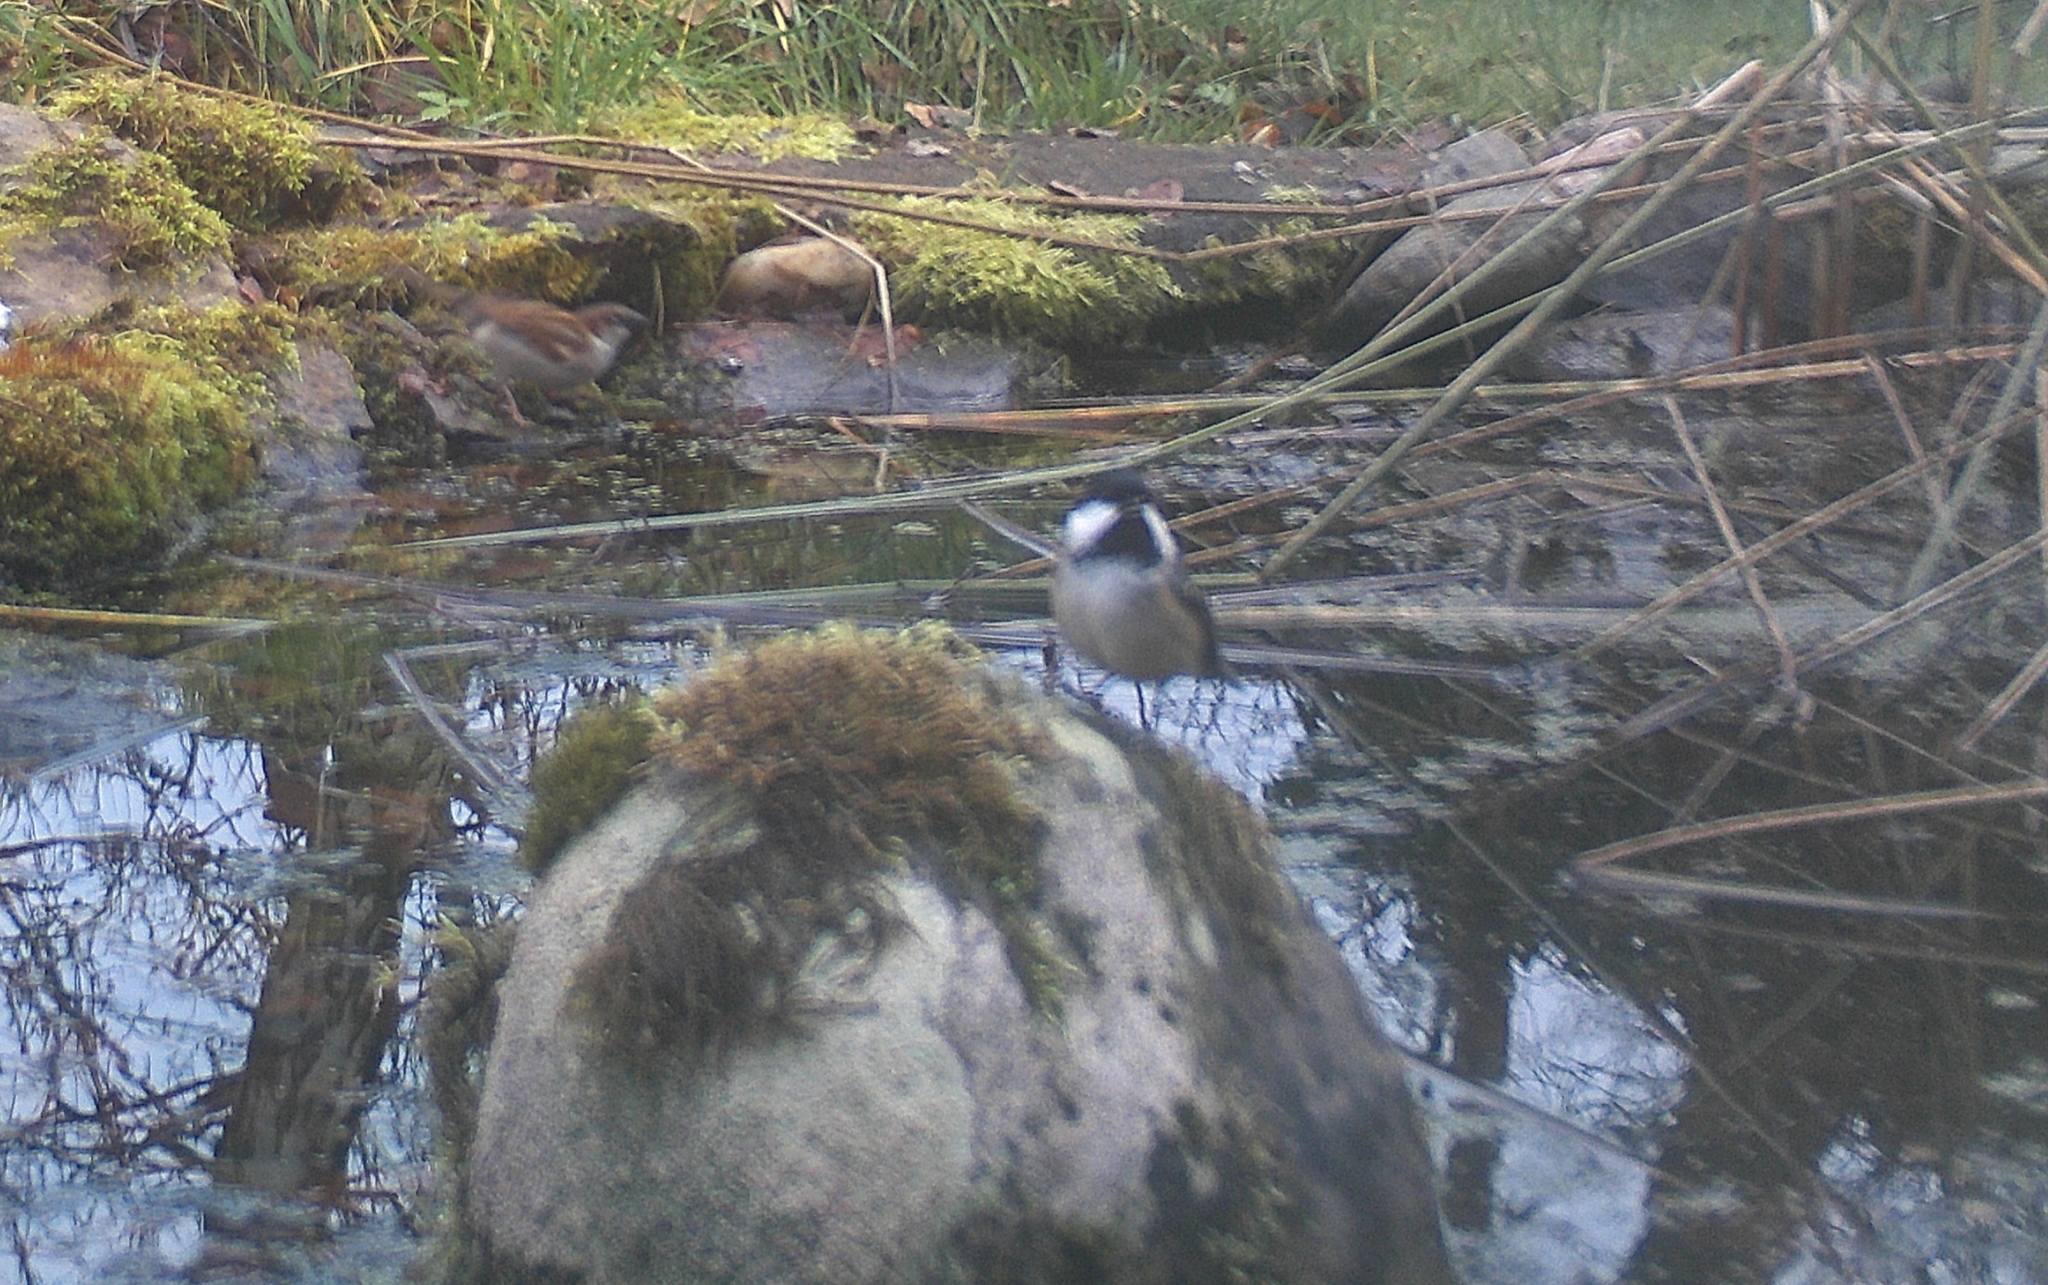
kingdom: Animalia
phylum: Chordata
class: Aves
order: Passeriformes
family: Paridae
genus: Periparus
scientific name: Periparus ater
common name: Coal tit
